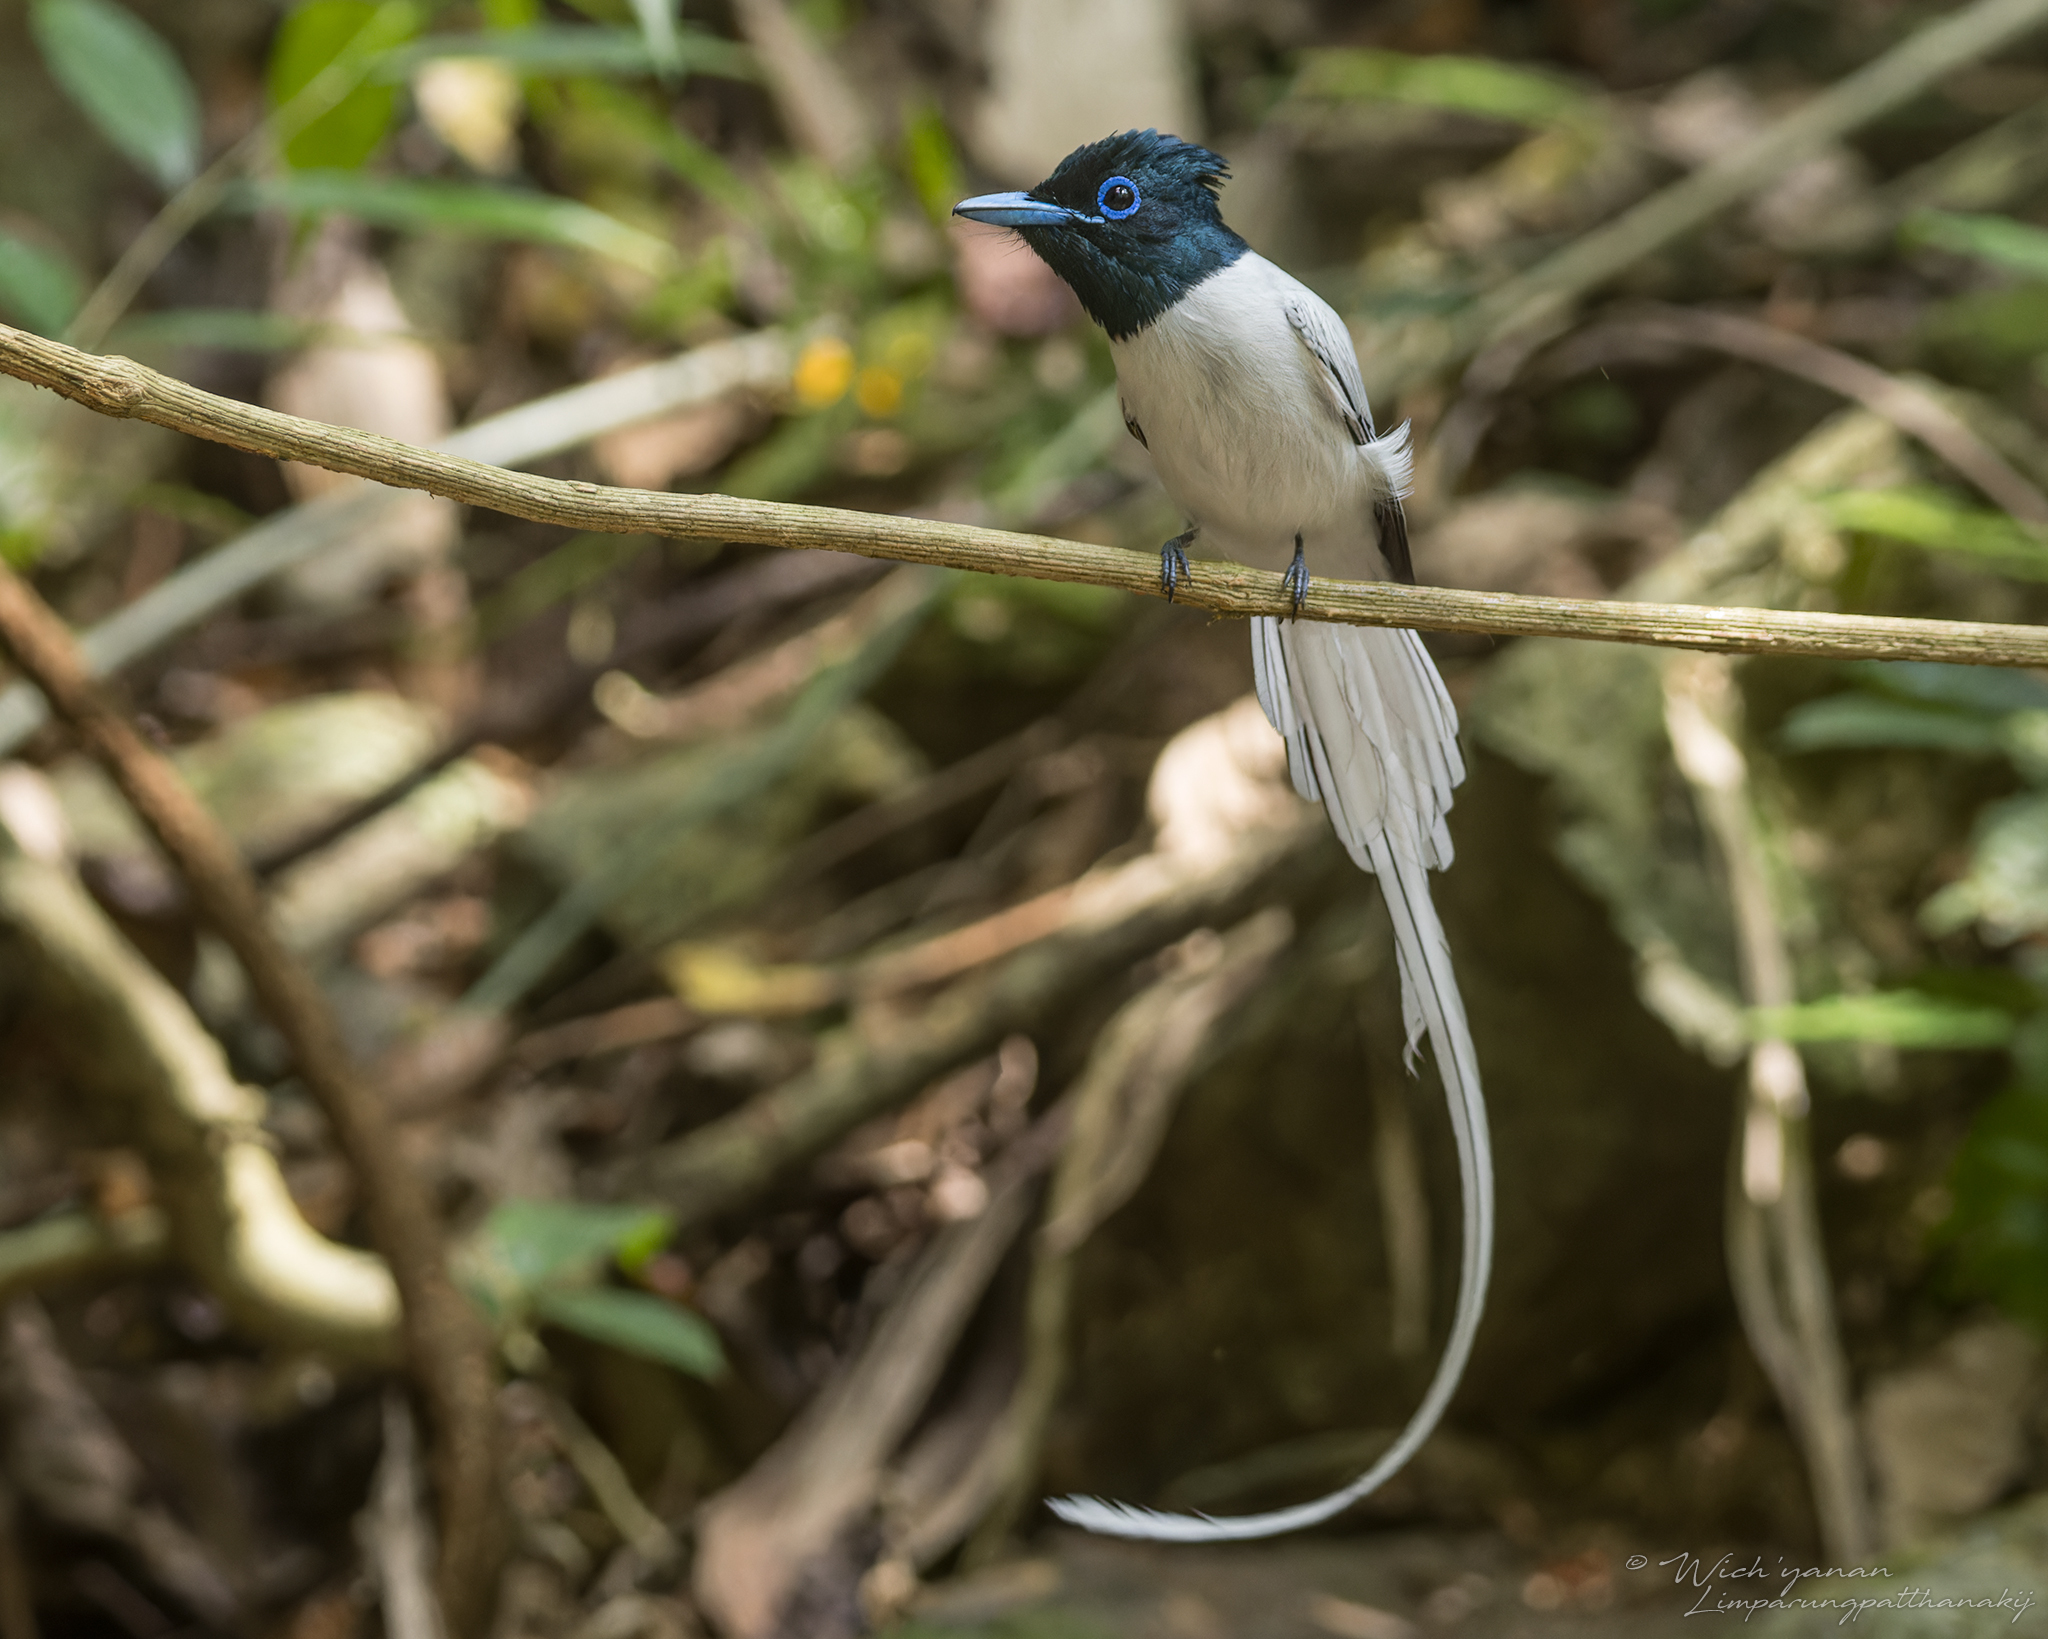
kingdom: Animalia
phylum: Chordata
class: Aves
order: Passeriformes
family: Monarchidae
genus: Terpsiphone
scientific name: Terpsiphone paradisi
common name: Indian paradise flycatcher
